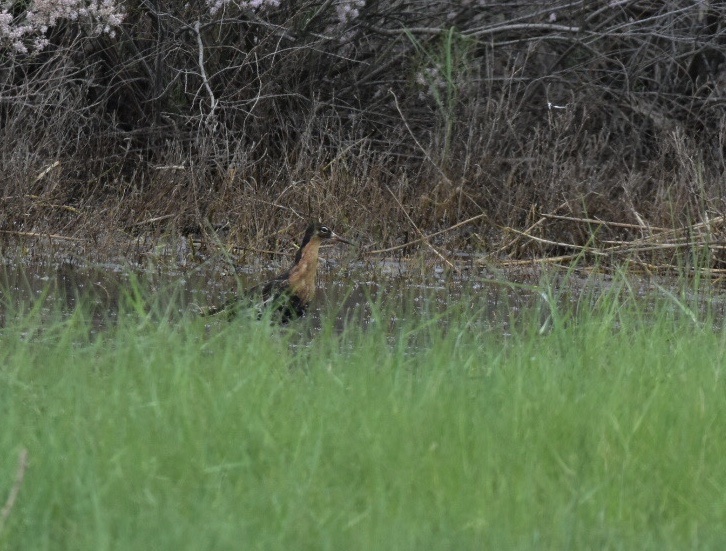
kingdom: Animalia
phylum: Chordata
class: Aves
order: Charadriiformes
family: Scolopacidae
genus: Calidris
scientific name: Calidris pugnax
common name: Ruff
